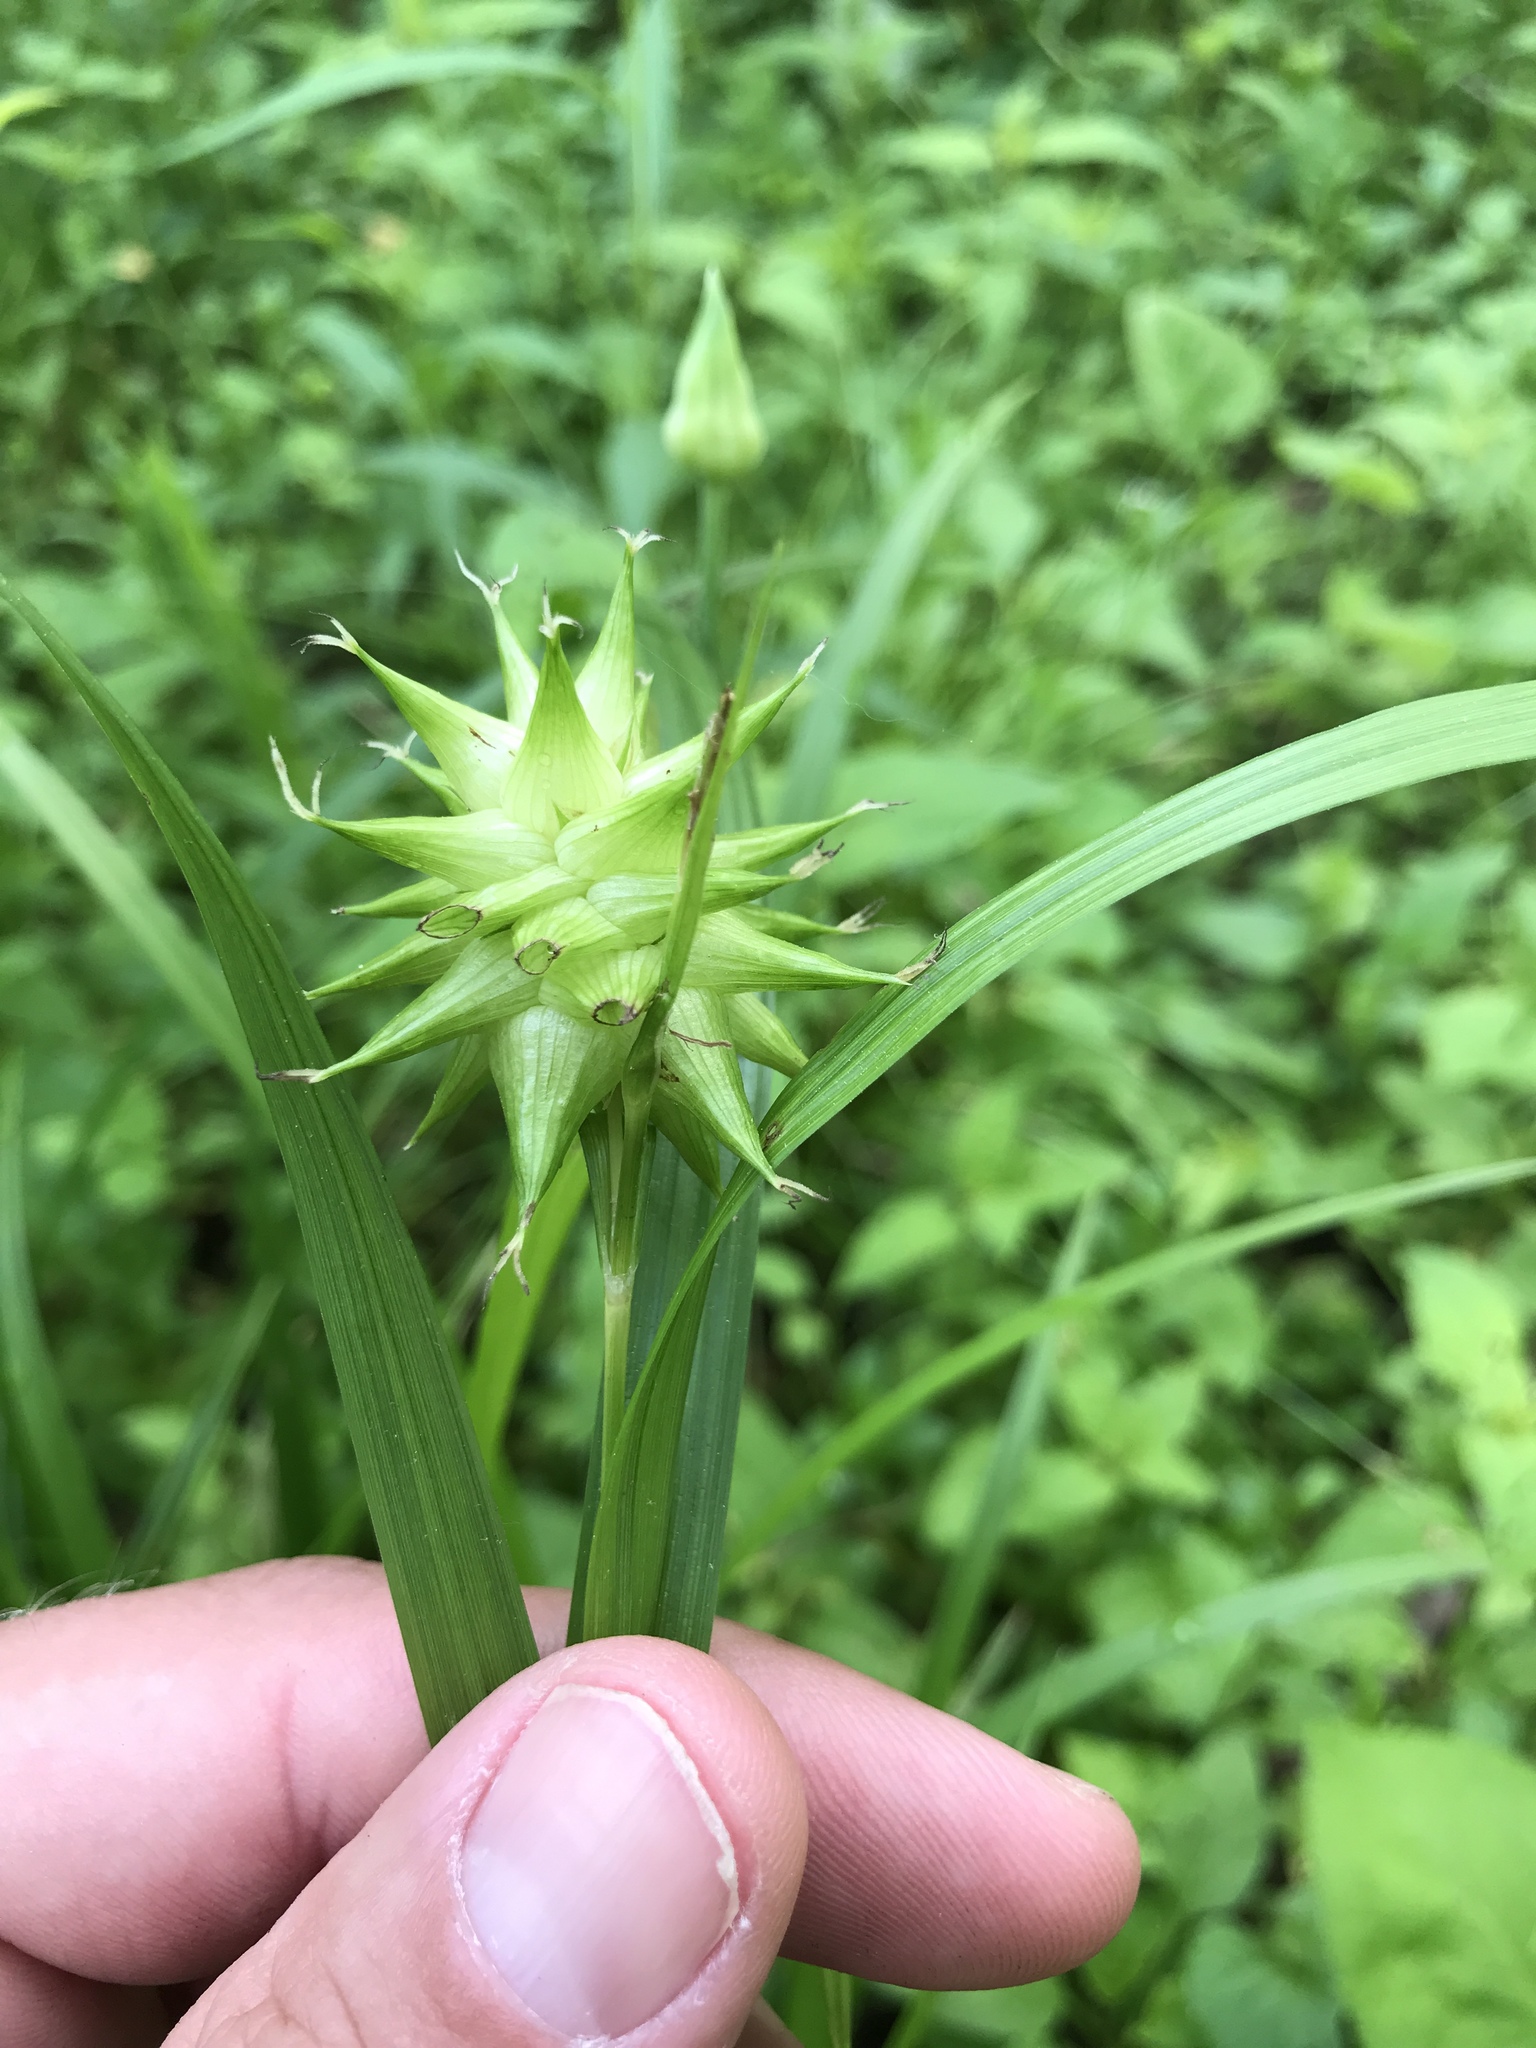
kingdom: Plantae
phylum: Tracheophyta
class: Liliopsida
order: Poales
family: Cyperaceae
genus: Carex
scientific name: Carex grayi
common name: Asa gray's sedge
